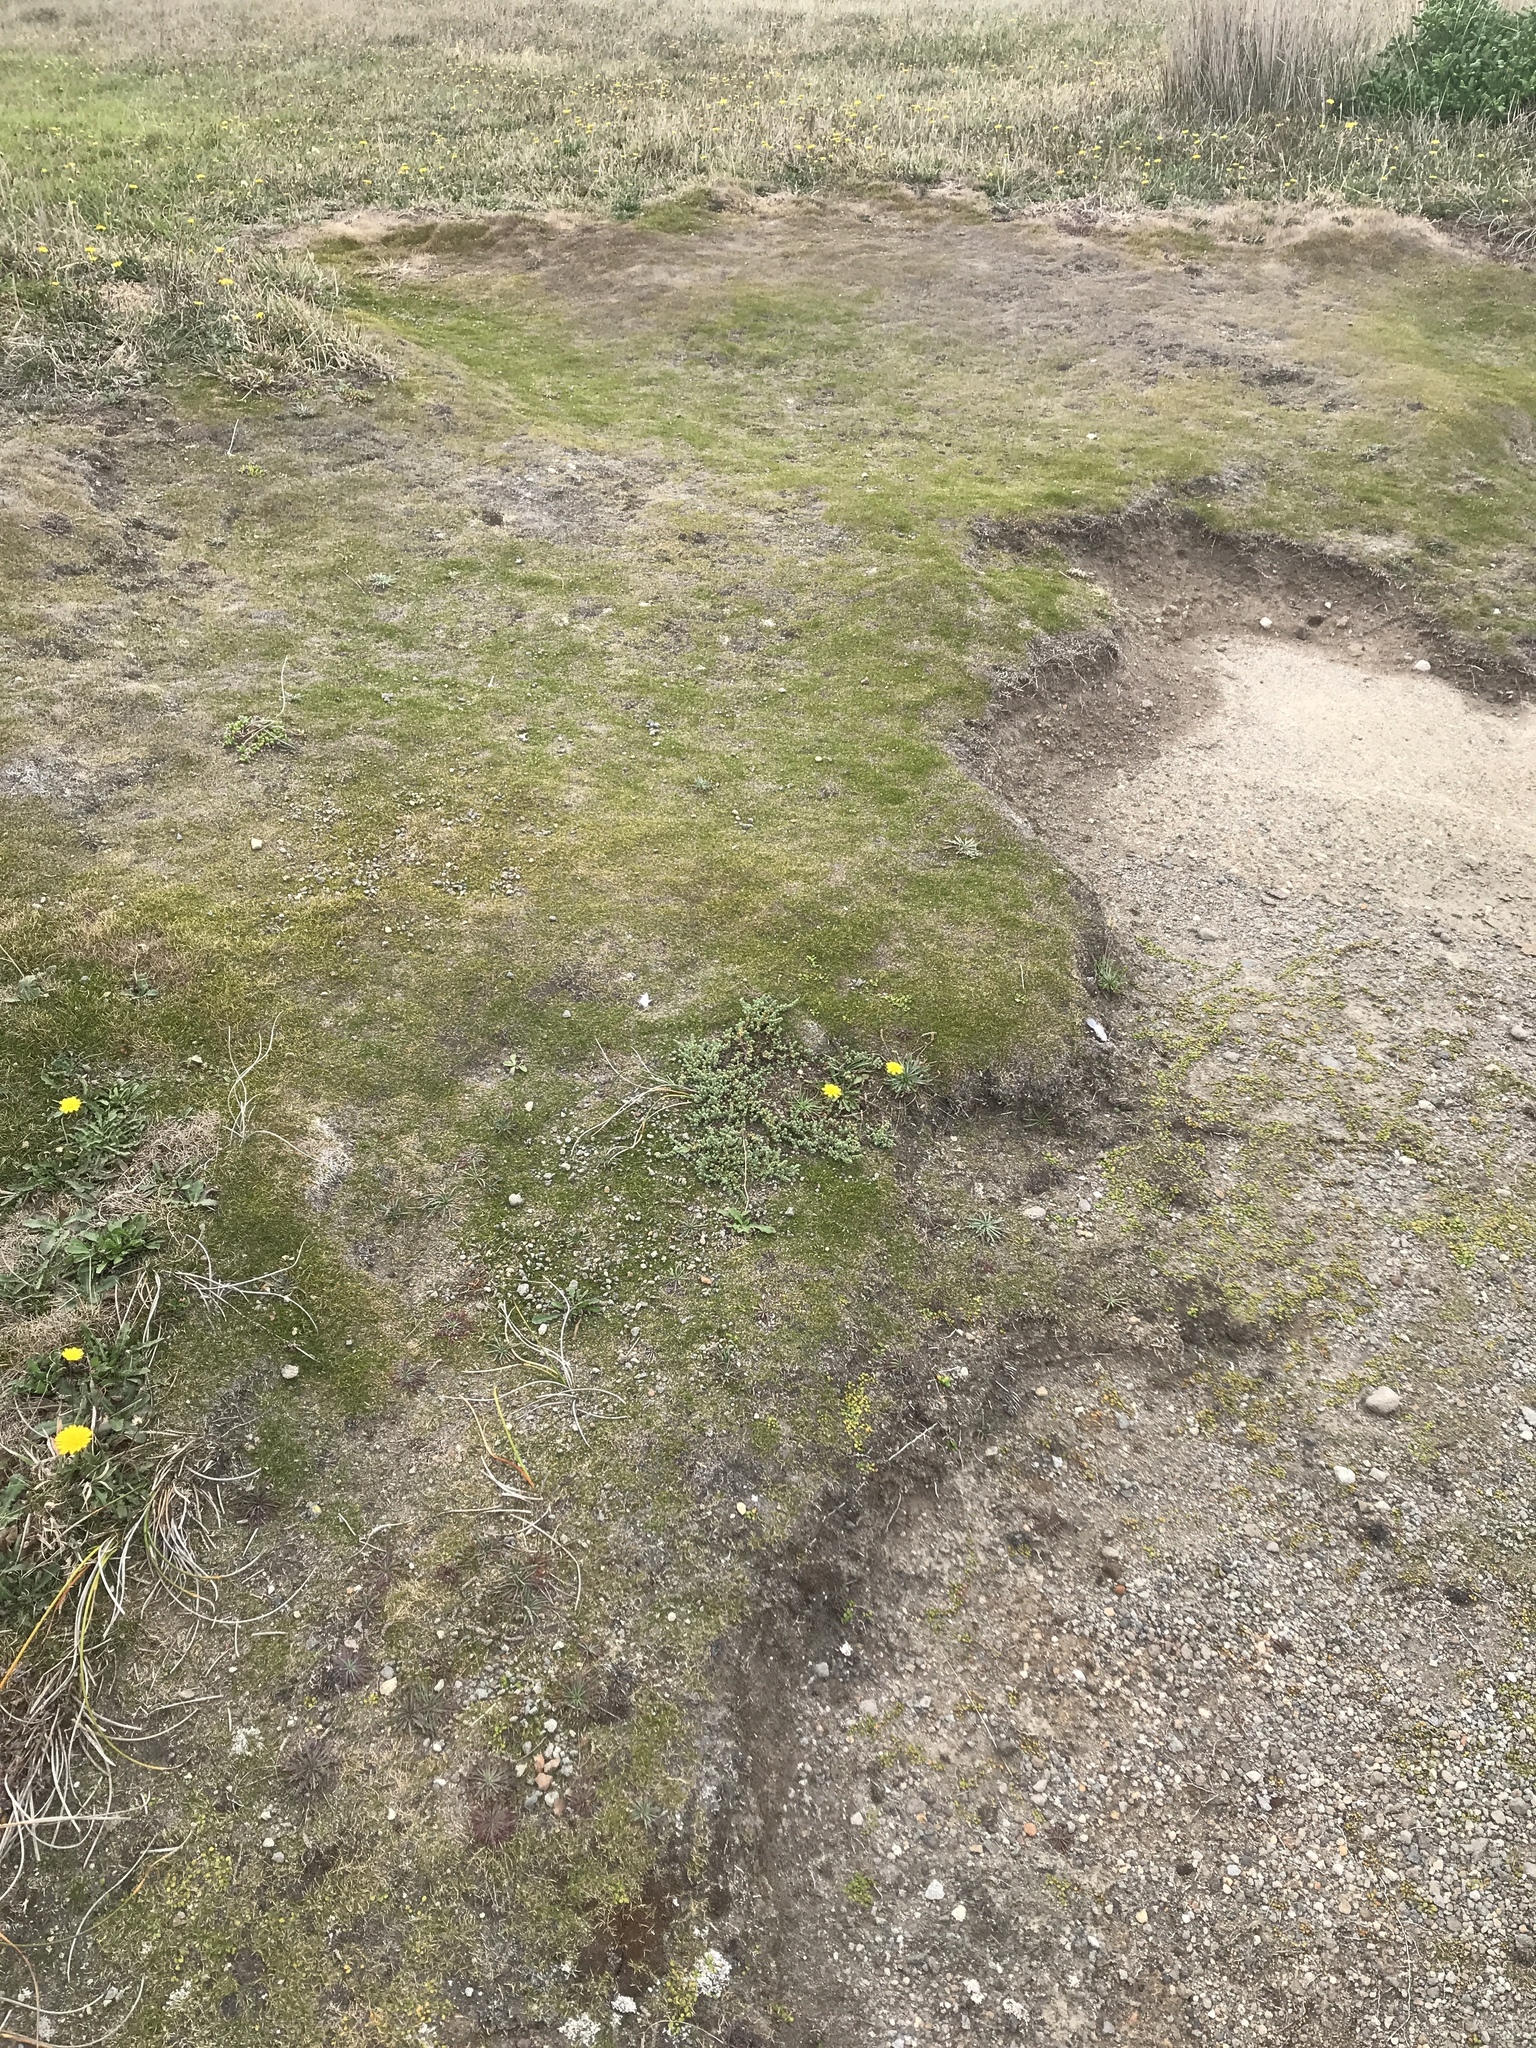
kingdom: Plantae
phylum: Tracheophyta
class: Liliopsida
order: Poales
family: Poaceae
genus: Zoysia
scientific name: Zoysia minima
